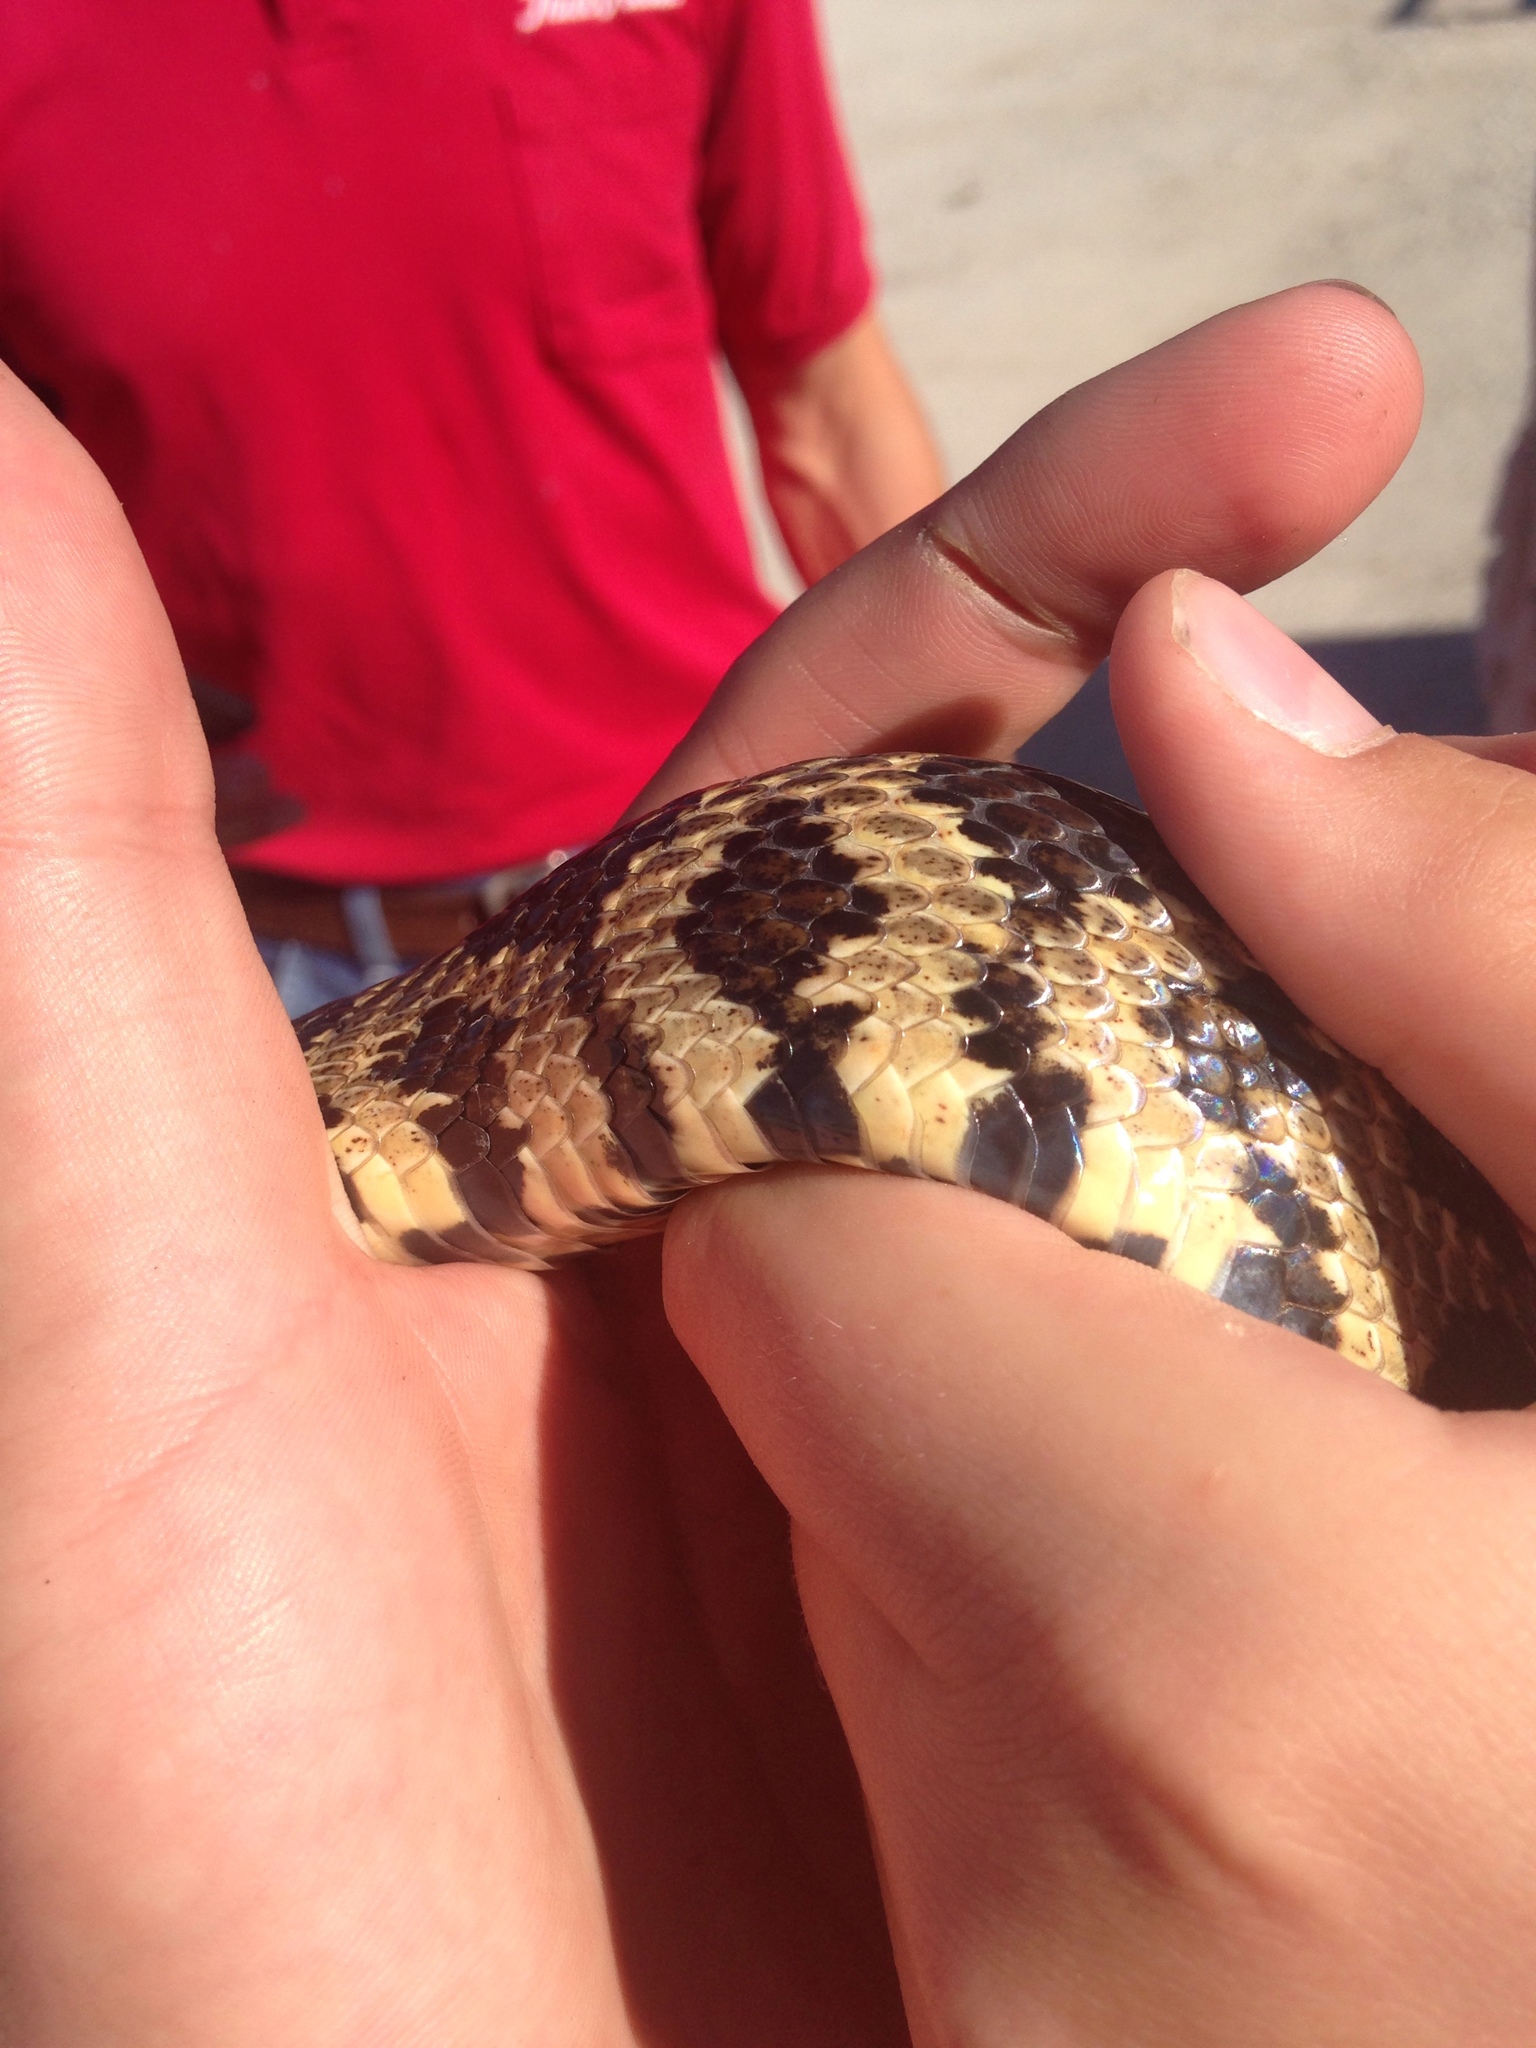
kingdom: Animalia
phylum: Chordata
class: Squamata
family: Colubridae
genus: Pantherophis
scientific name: Pantherophis ramspotti
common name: Western foxsnake
